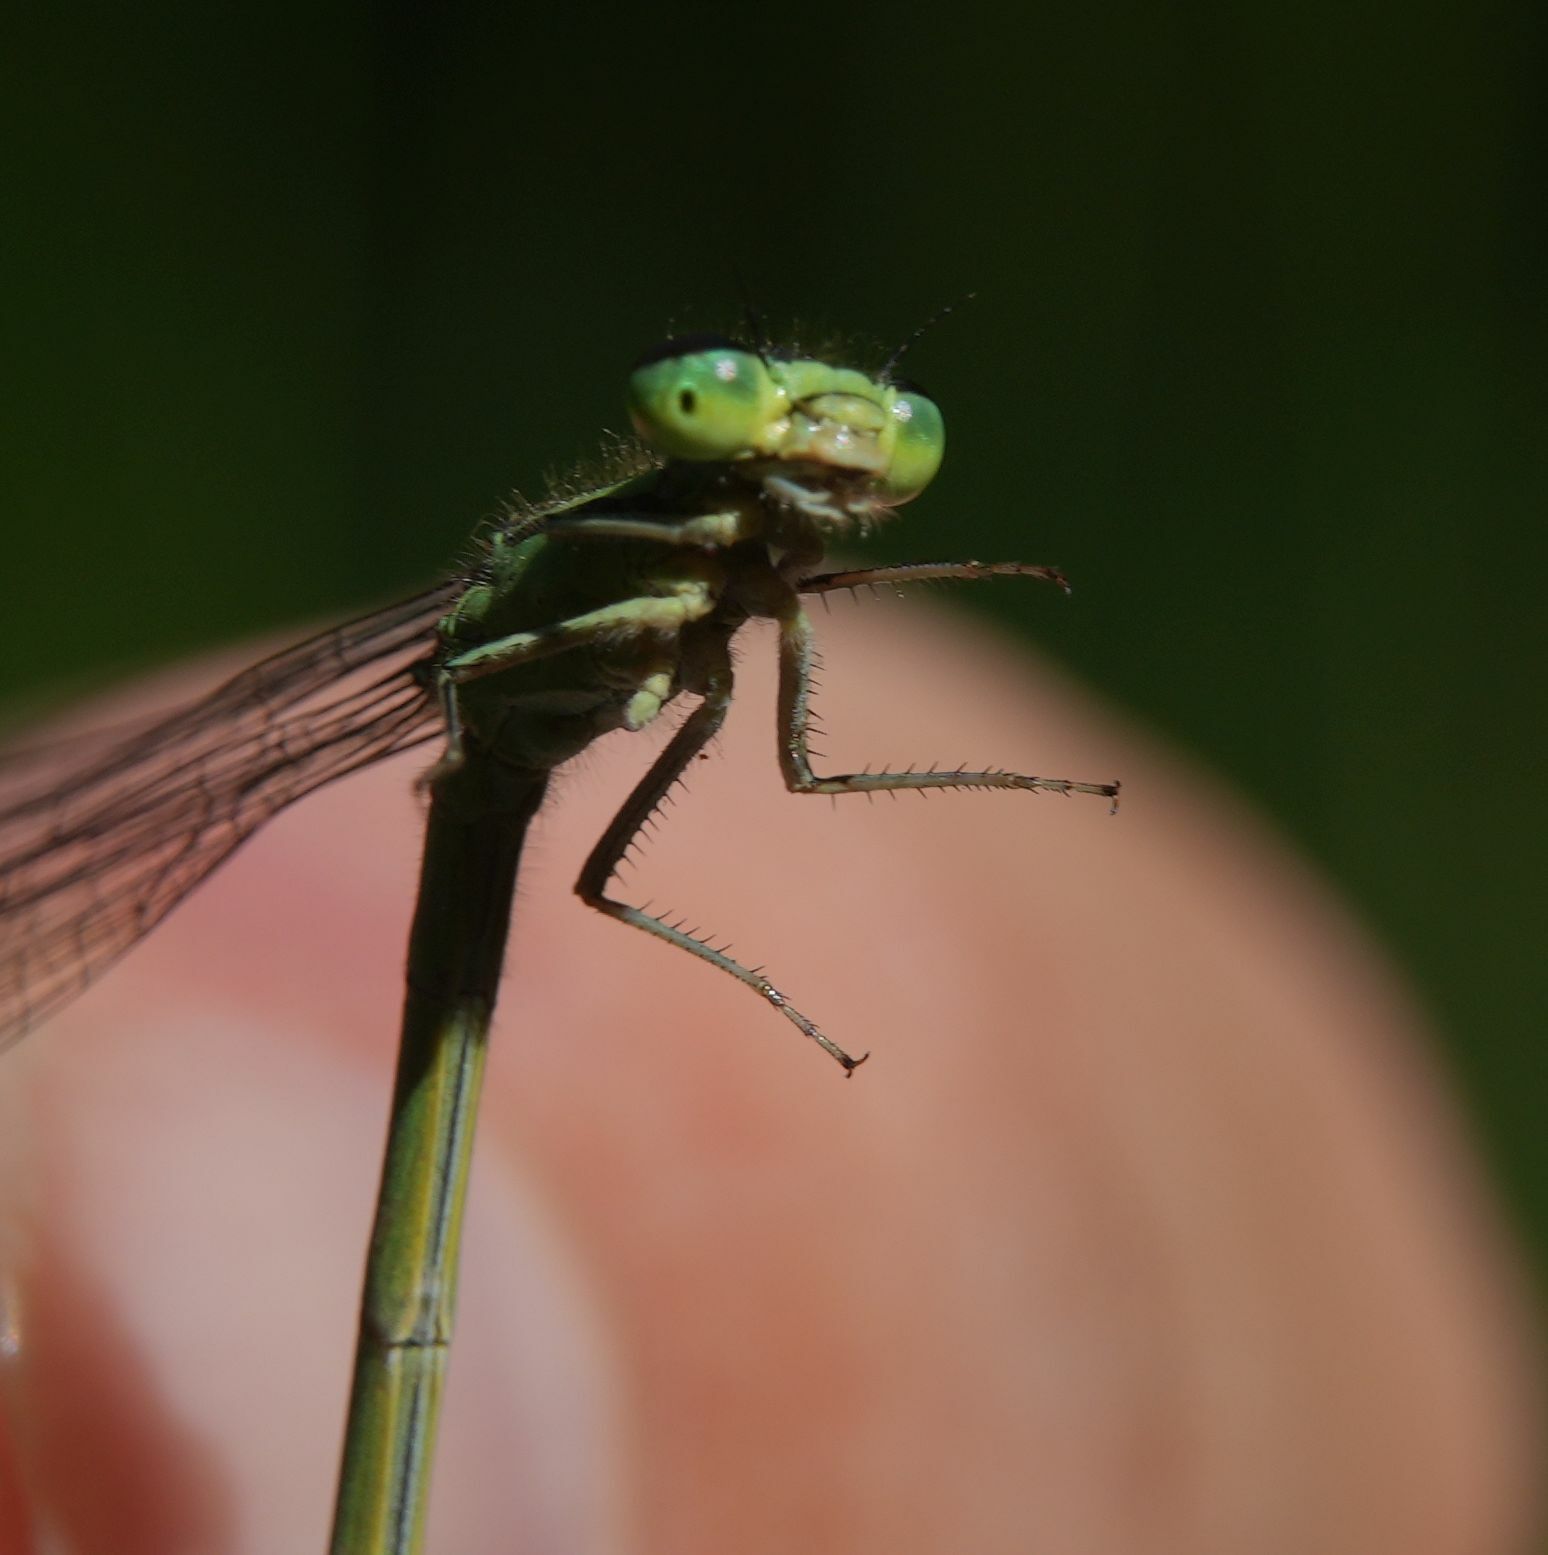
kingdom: Animalia
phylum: Arthropoda
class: Insecta
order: Odonata
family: Coenagrionidae
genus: Coenagrion
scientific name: Coenagrion resolutum
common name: Taiga bluet
